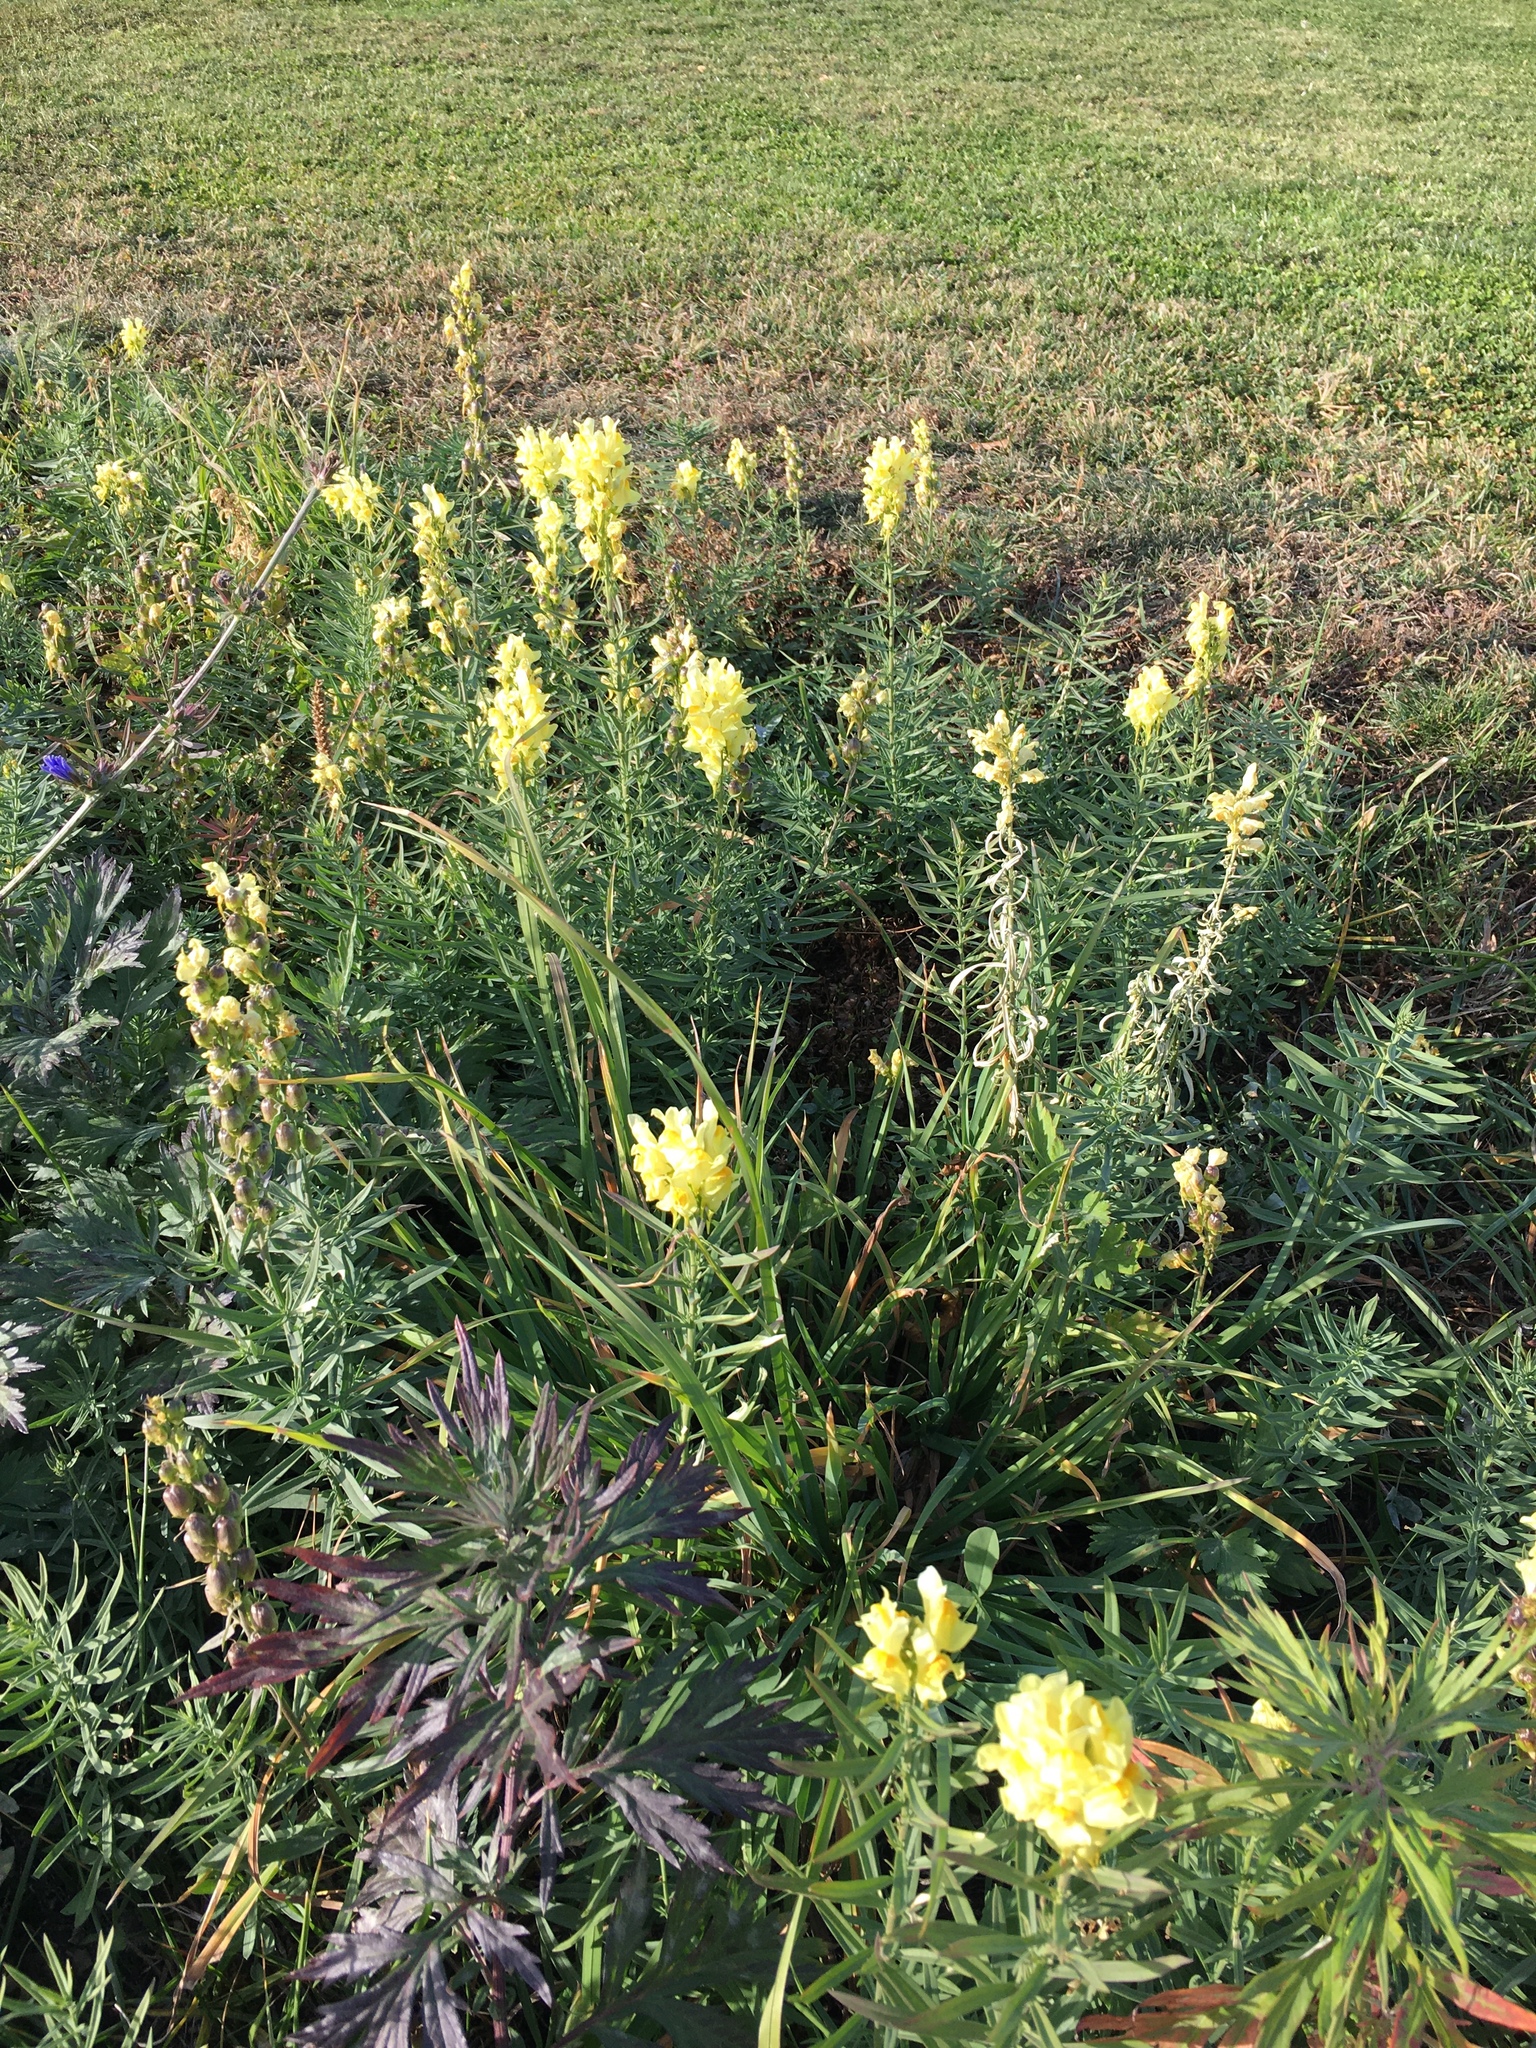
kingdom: Plantae
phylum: Tracheophyta
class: Magnoliopsida
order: Lamiales
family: Plantaginaceae
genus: Linaria
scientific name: Linaria vulgaris
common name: Butter and eggs
